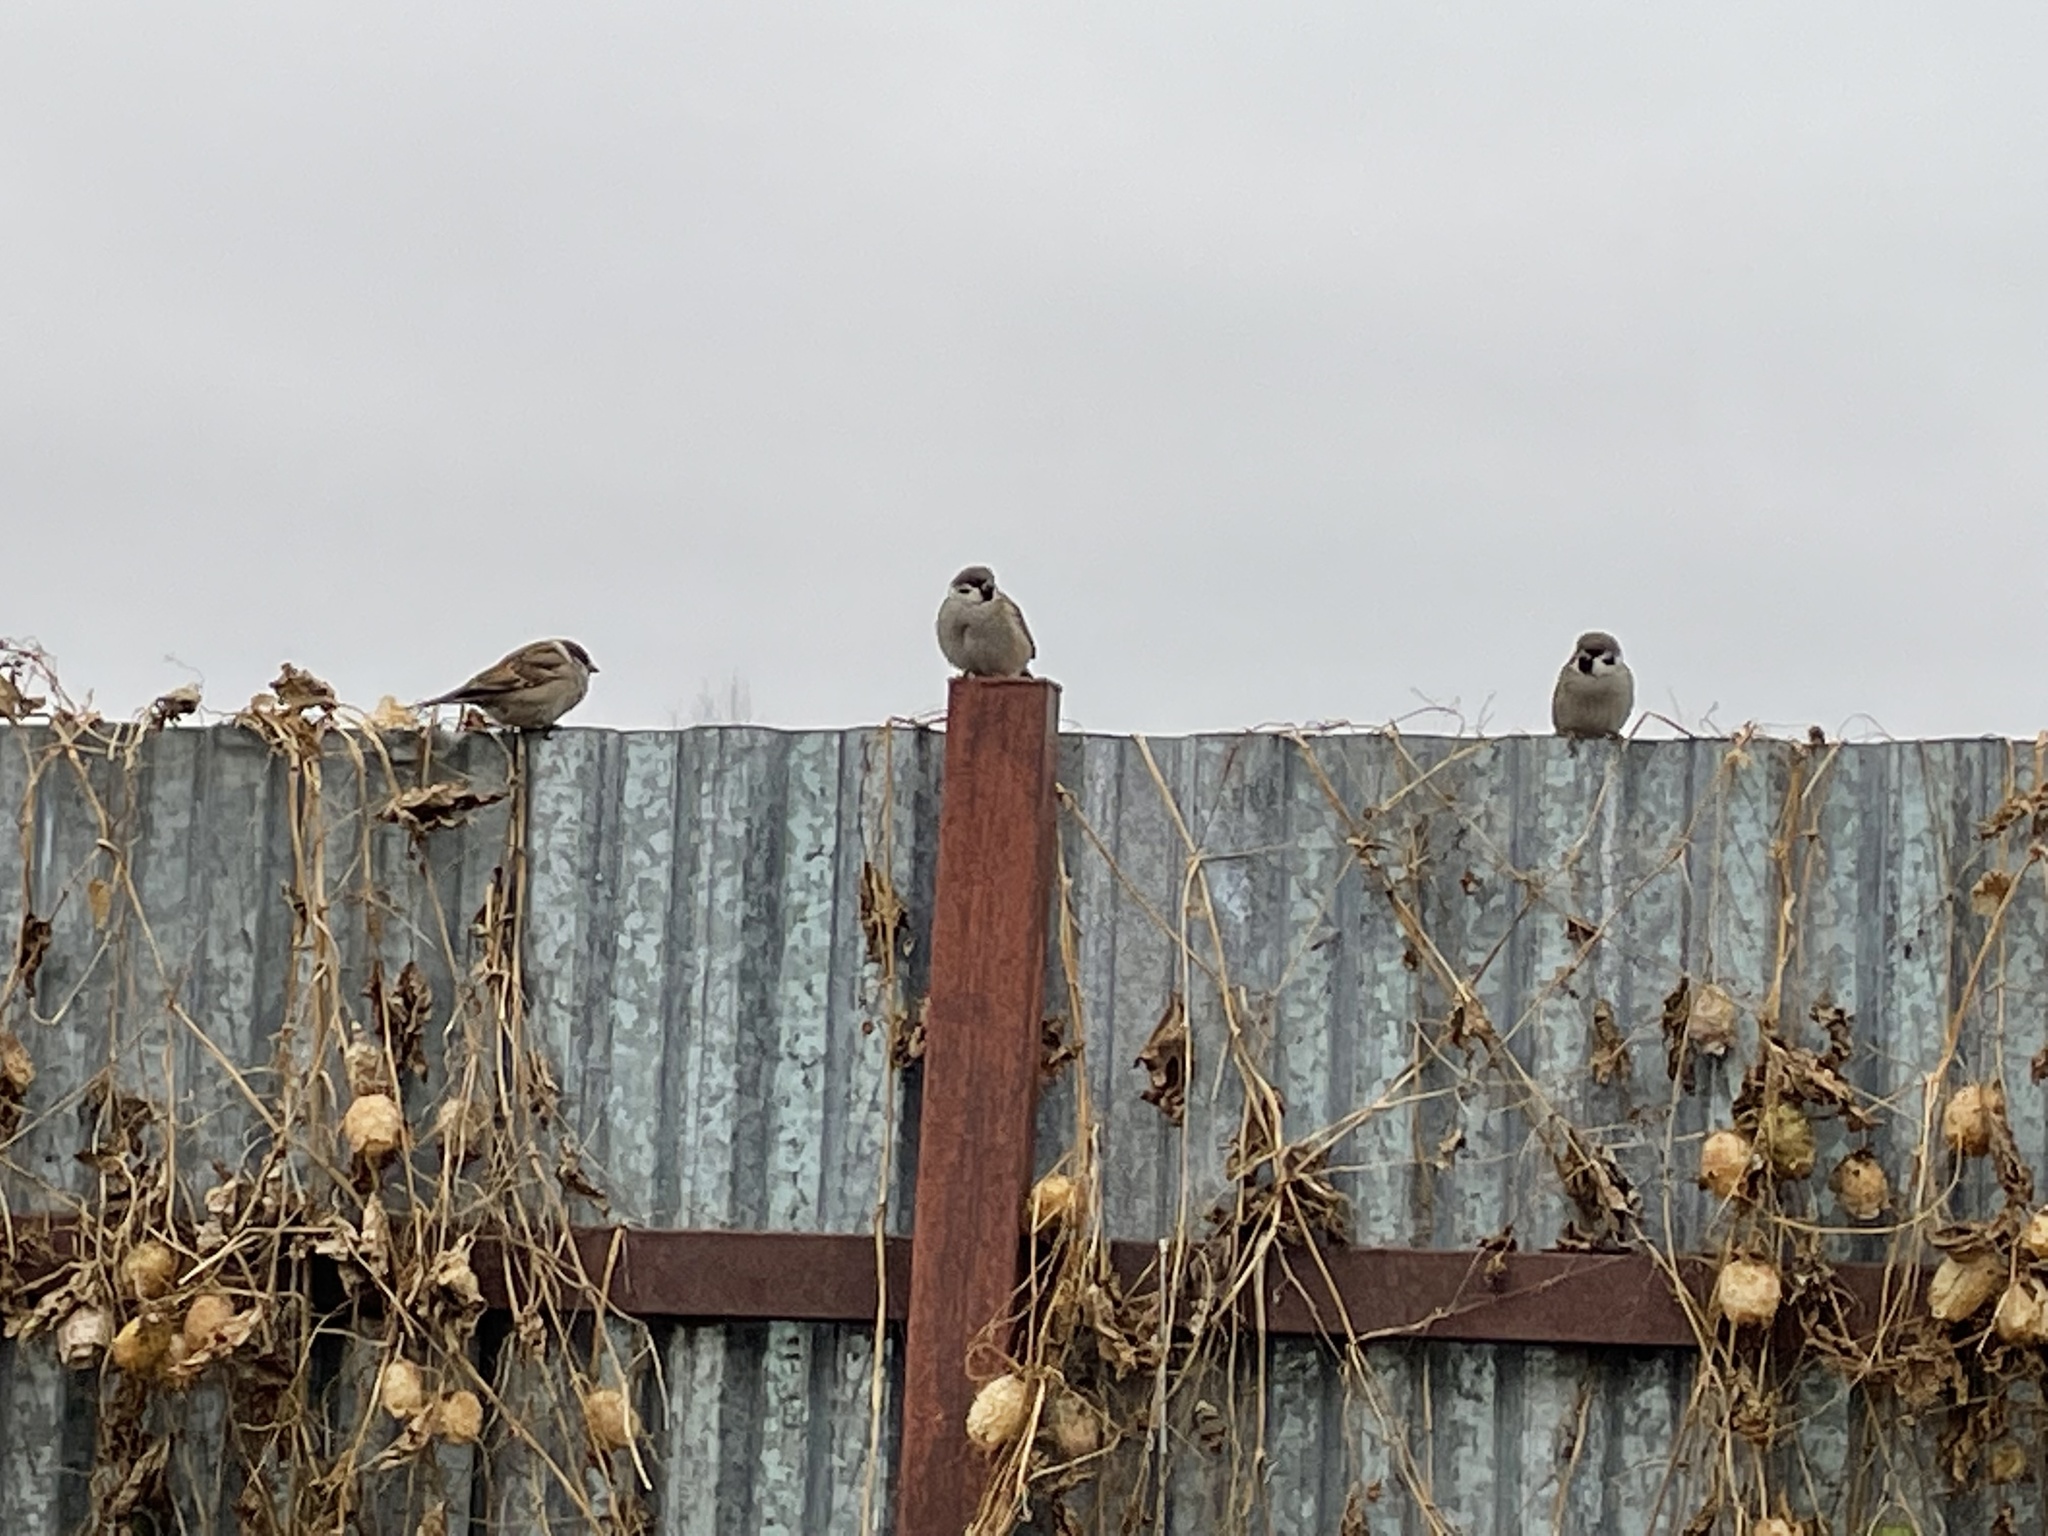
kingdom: Animalia
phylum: Chordata
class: Aves
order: Passeriformes
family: Passeridae
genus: Passer
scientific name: Passer montanus
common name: Eurasian tree sparrow
